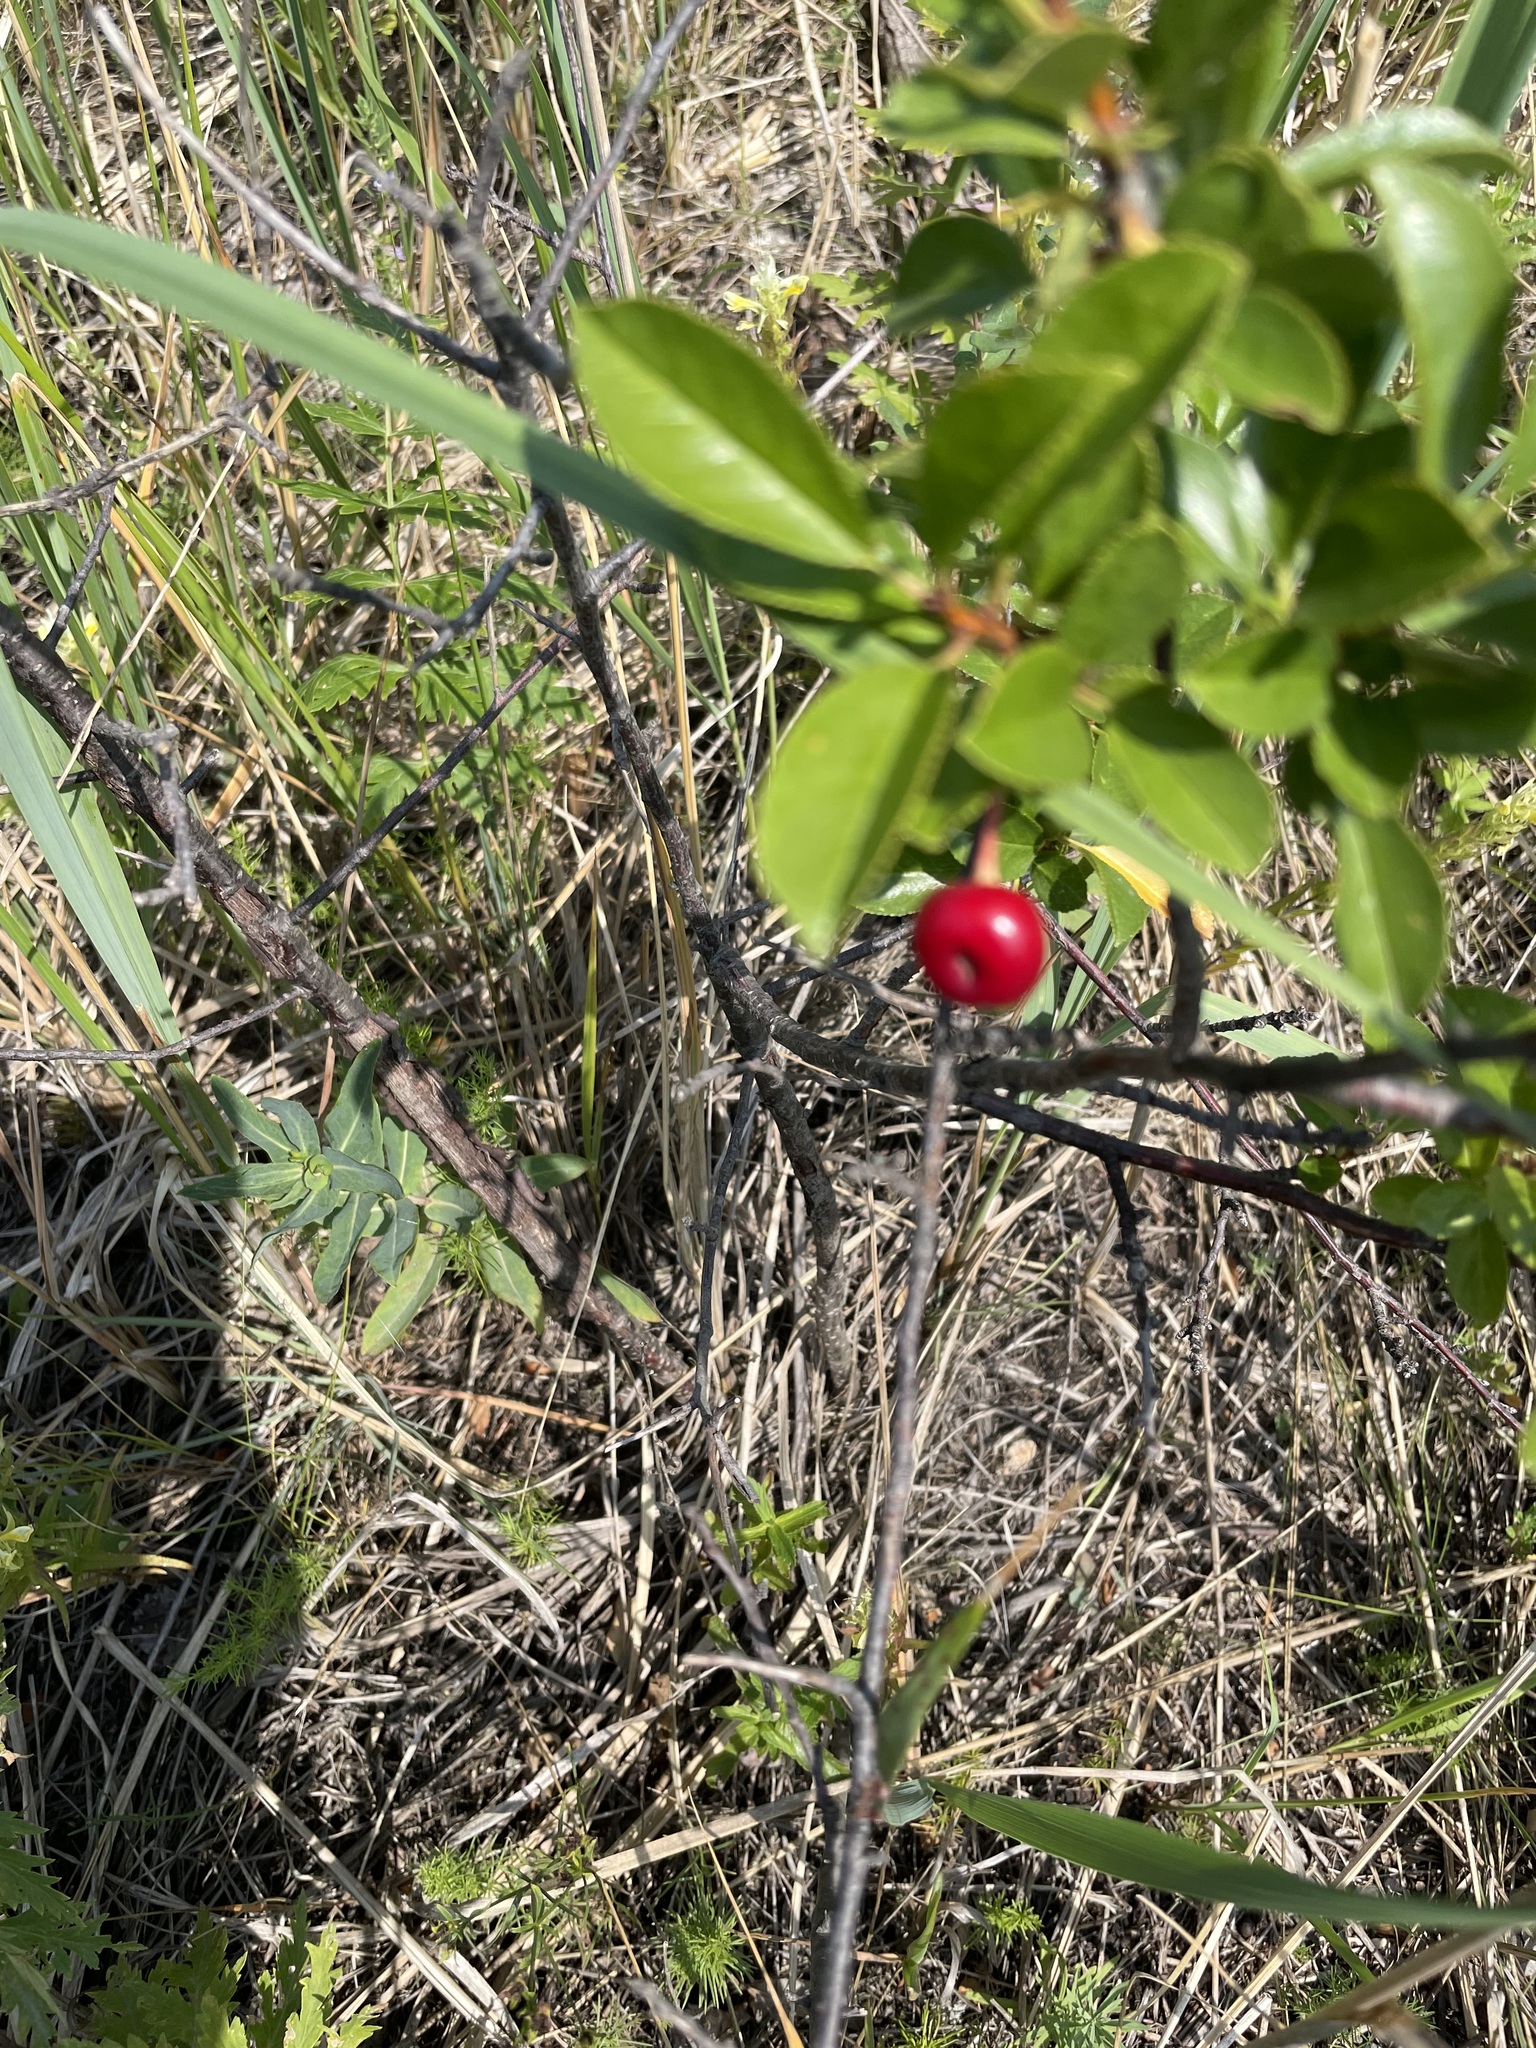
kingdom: Plantae
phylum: Tracheophyta
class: Magnoliopsida
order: Rosales
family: Rosaceae
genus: Prunus
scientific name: Prunus fruticosa
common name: European dwarf cherry
